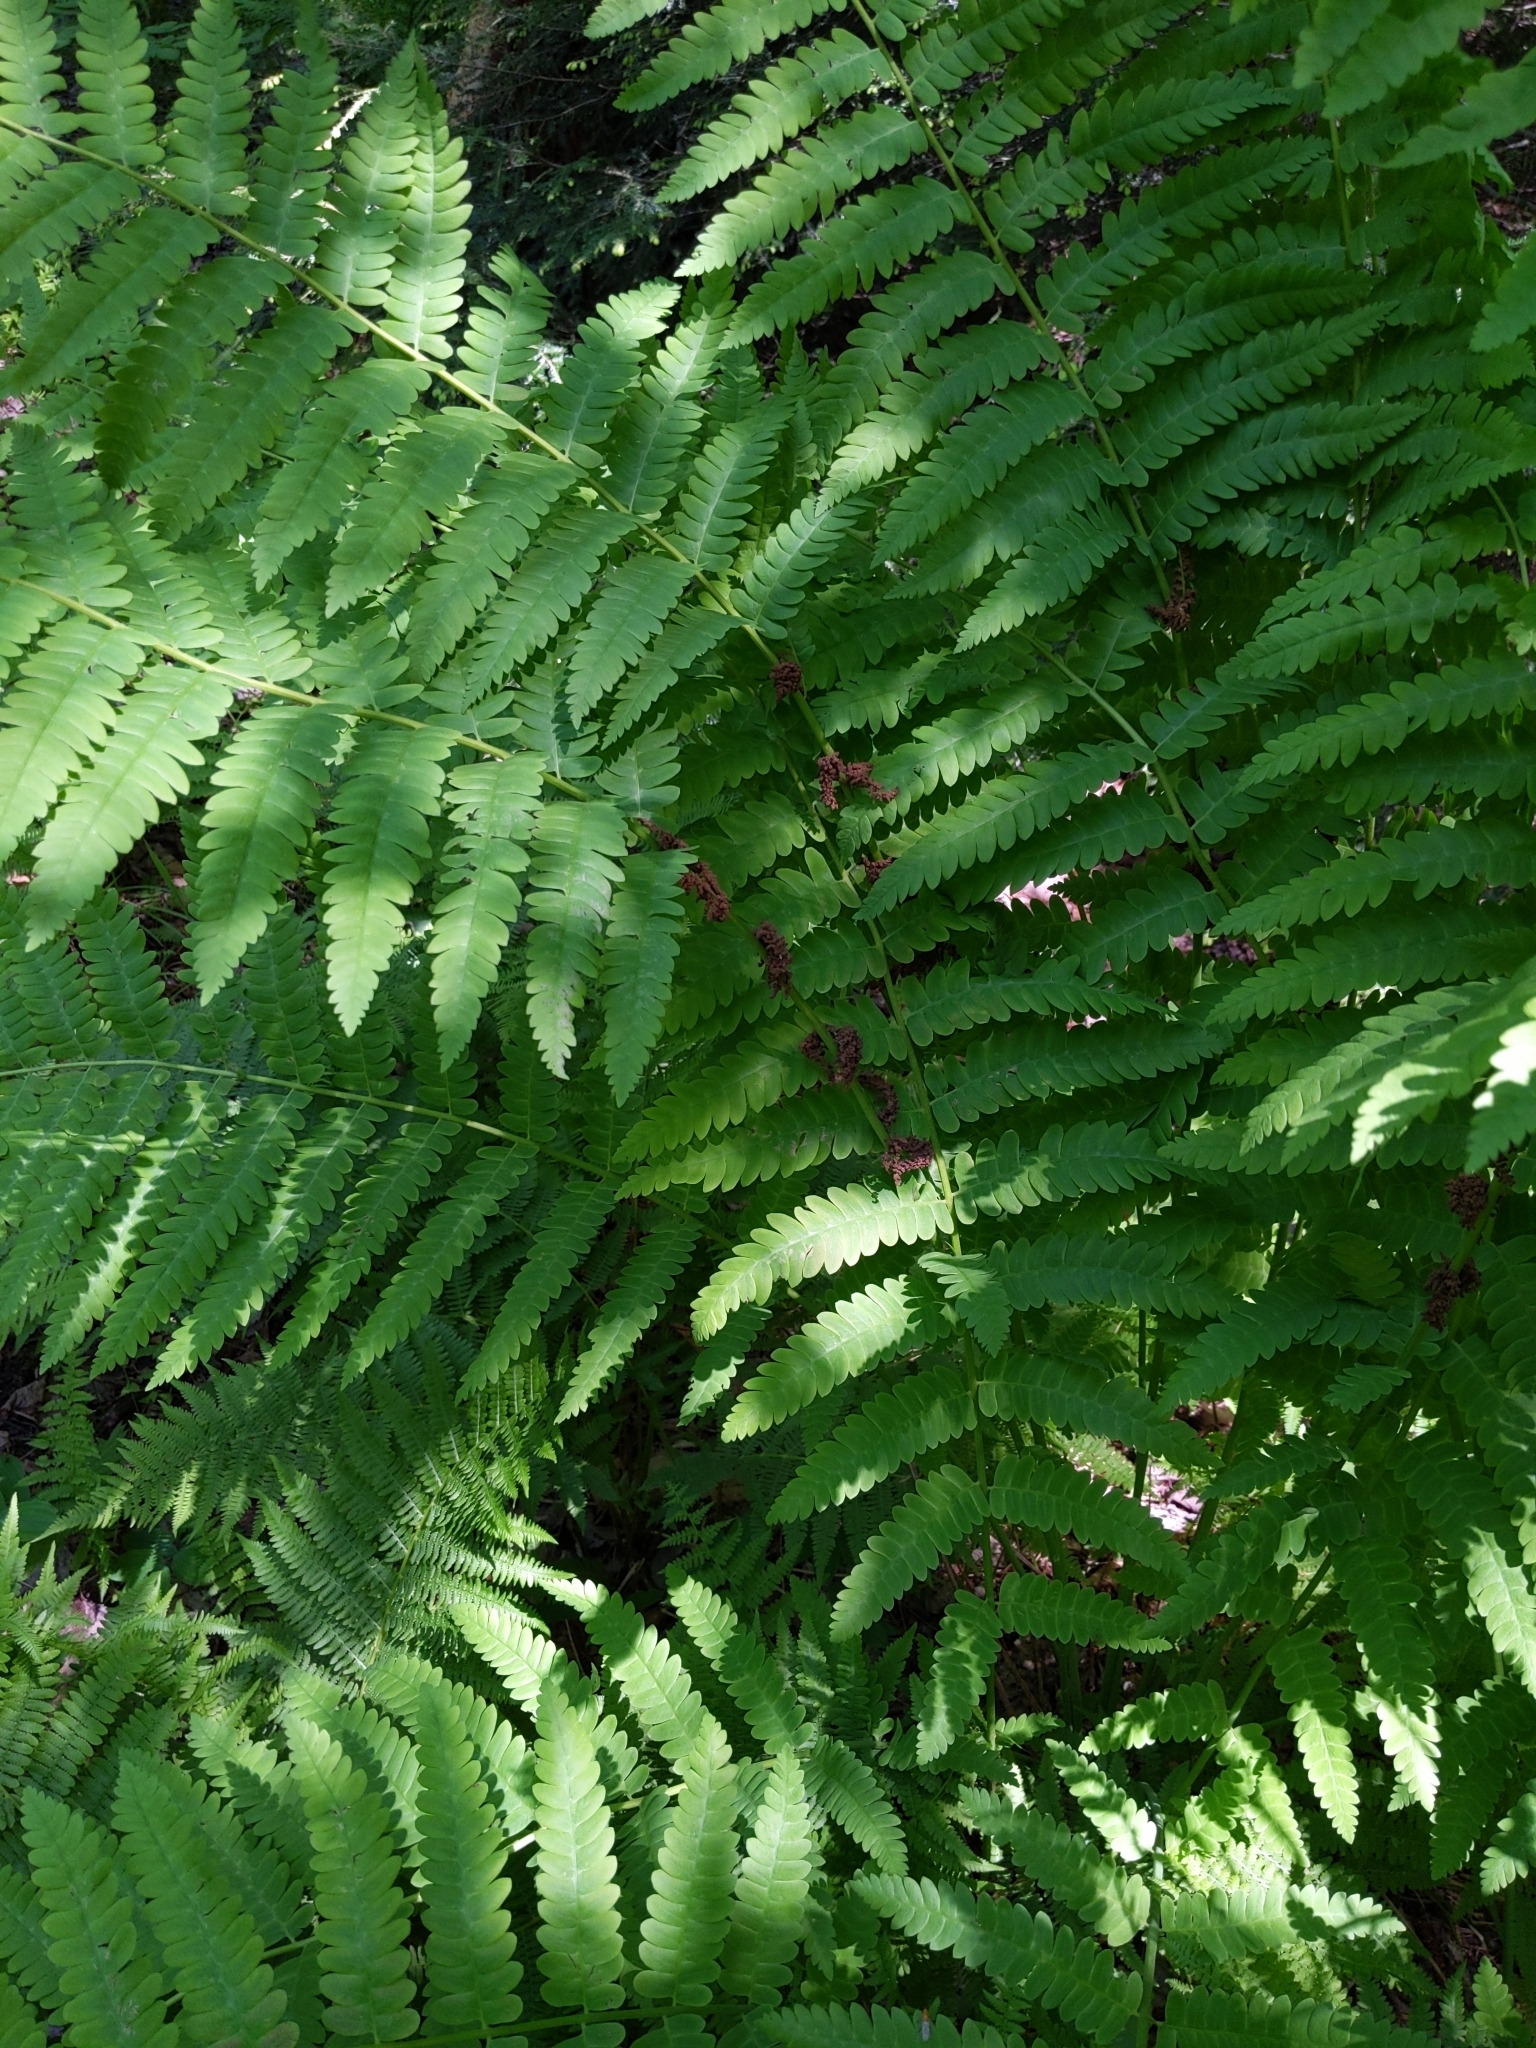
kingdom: Plantae
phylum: Tracheophyta
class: Polypodiopsida
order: Osmundales
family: Osmundaceae
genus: Claytosmunda
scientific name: Claytosmunda claytoniana
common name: Clayton's fern
